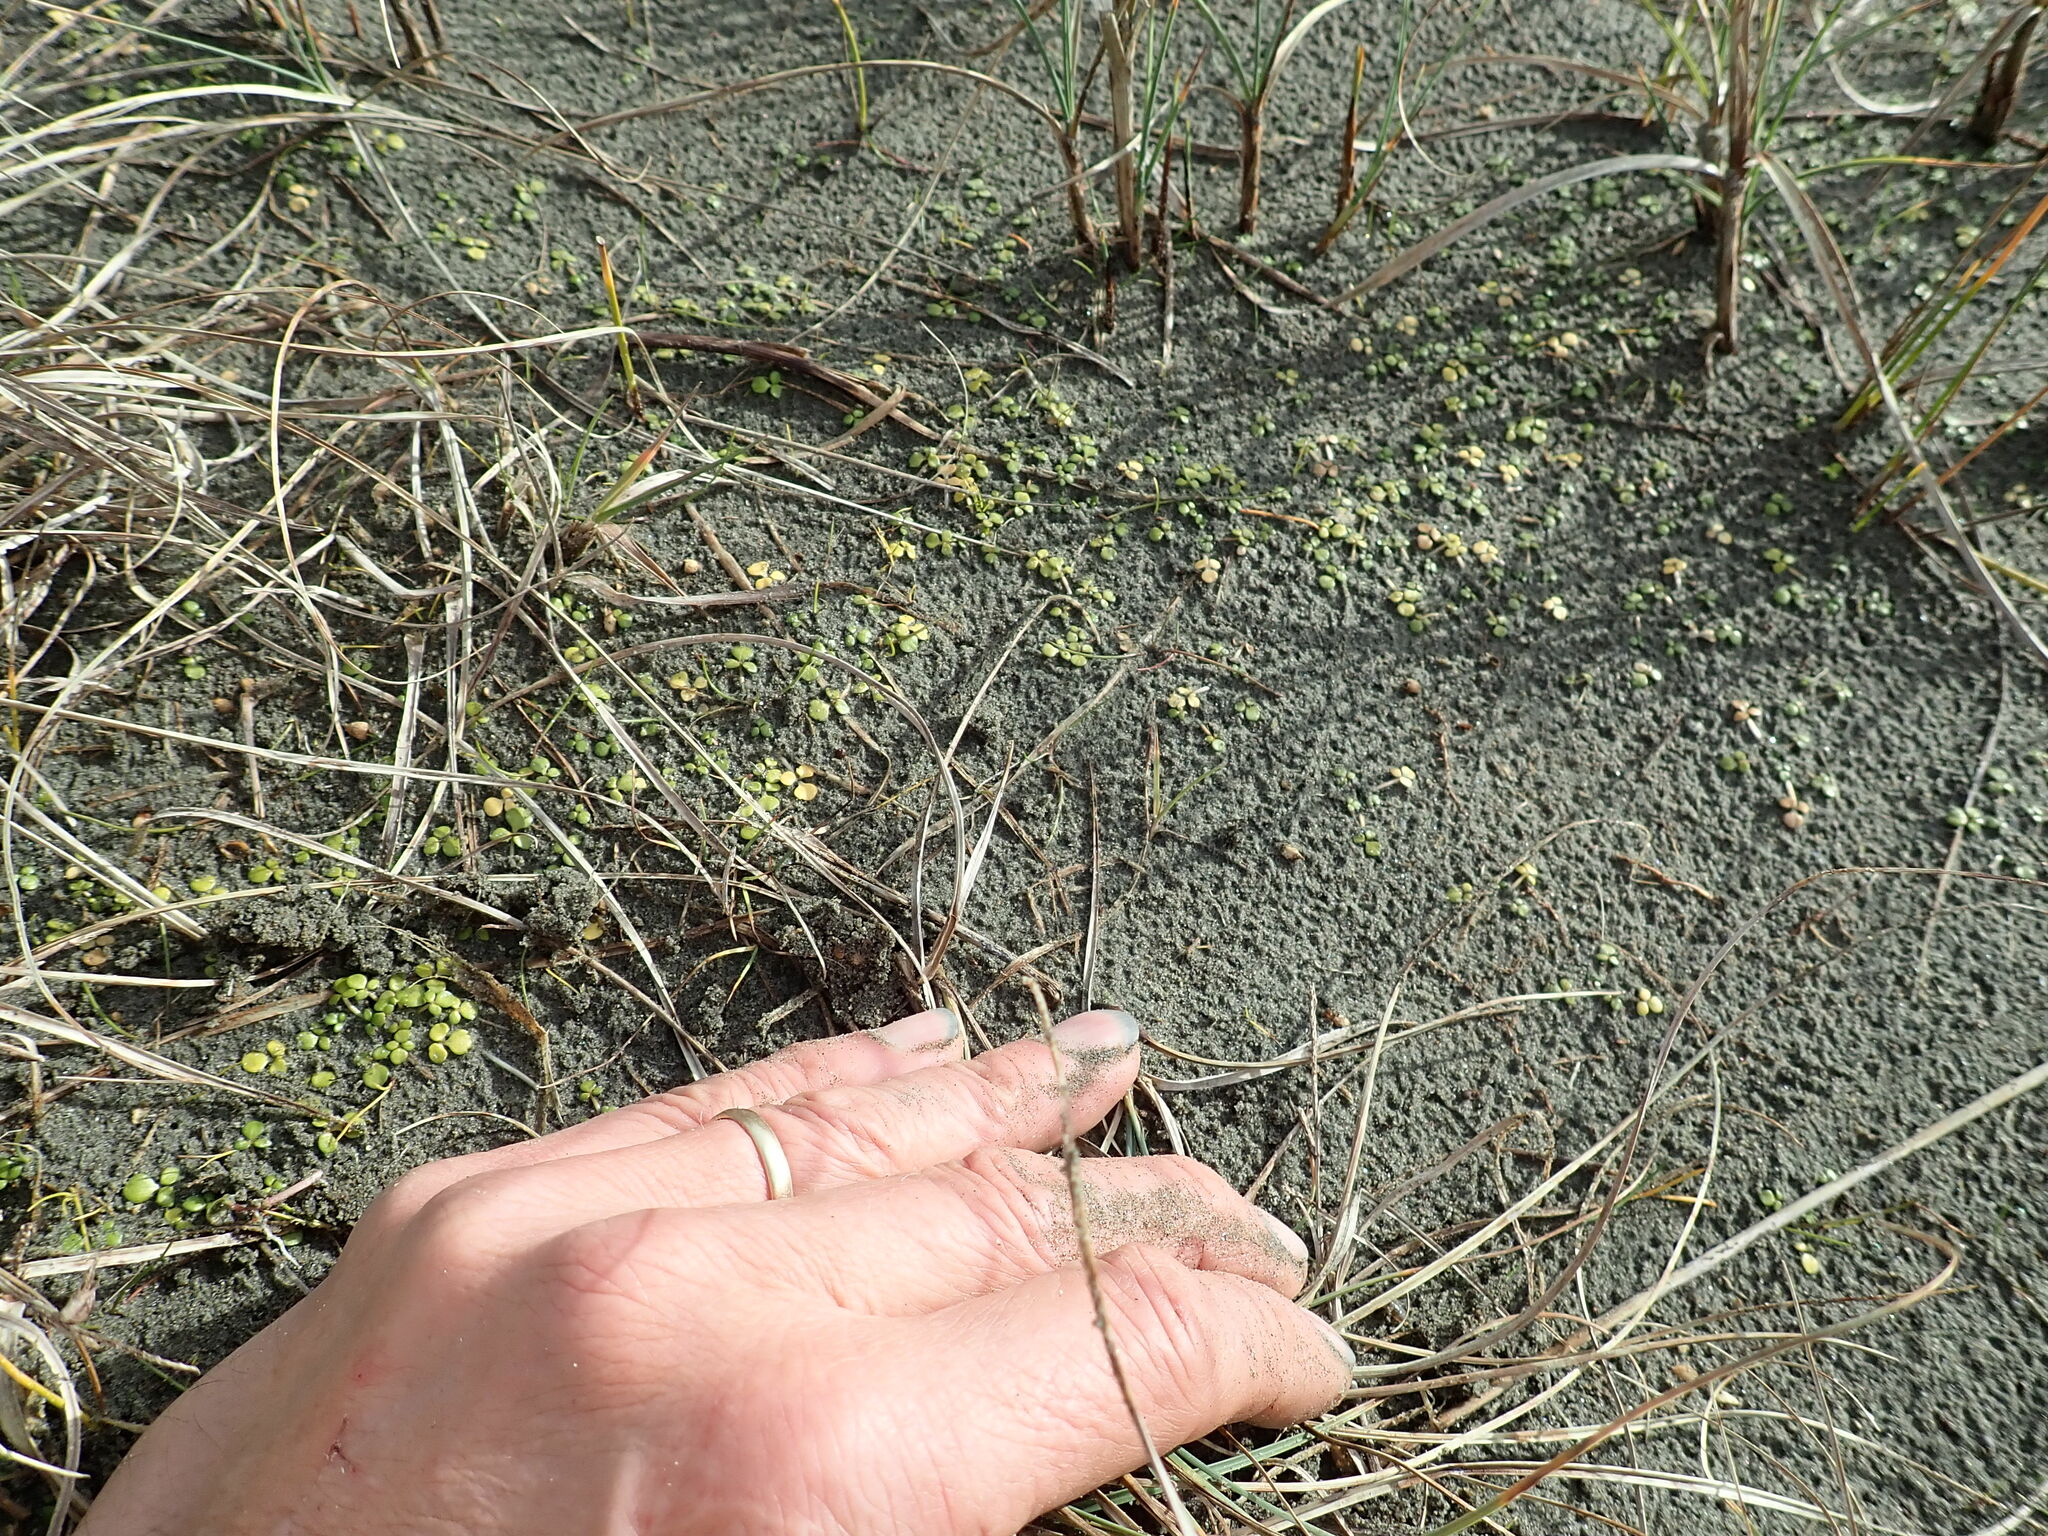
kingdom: Plantae
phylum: Tracheophyta
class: Magnoliopsida
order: Ranunculales
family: Ranunculaceae
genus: Ranunculus
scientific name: Ranunculus acaulis
